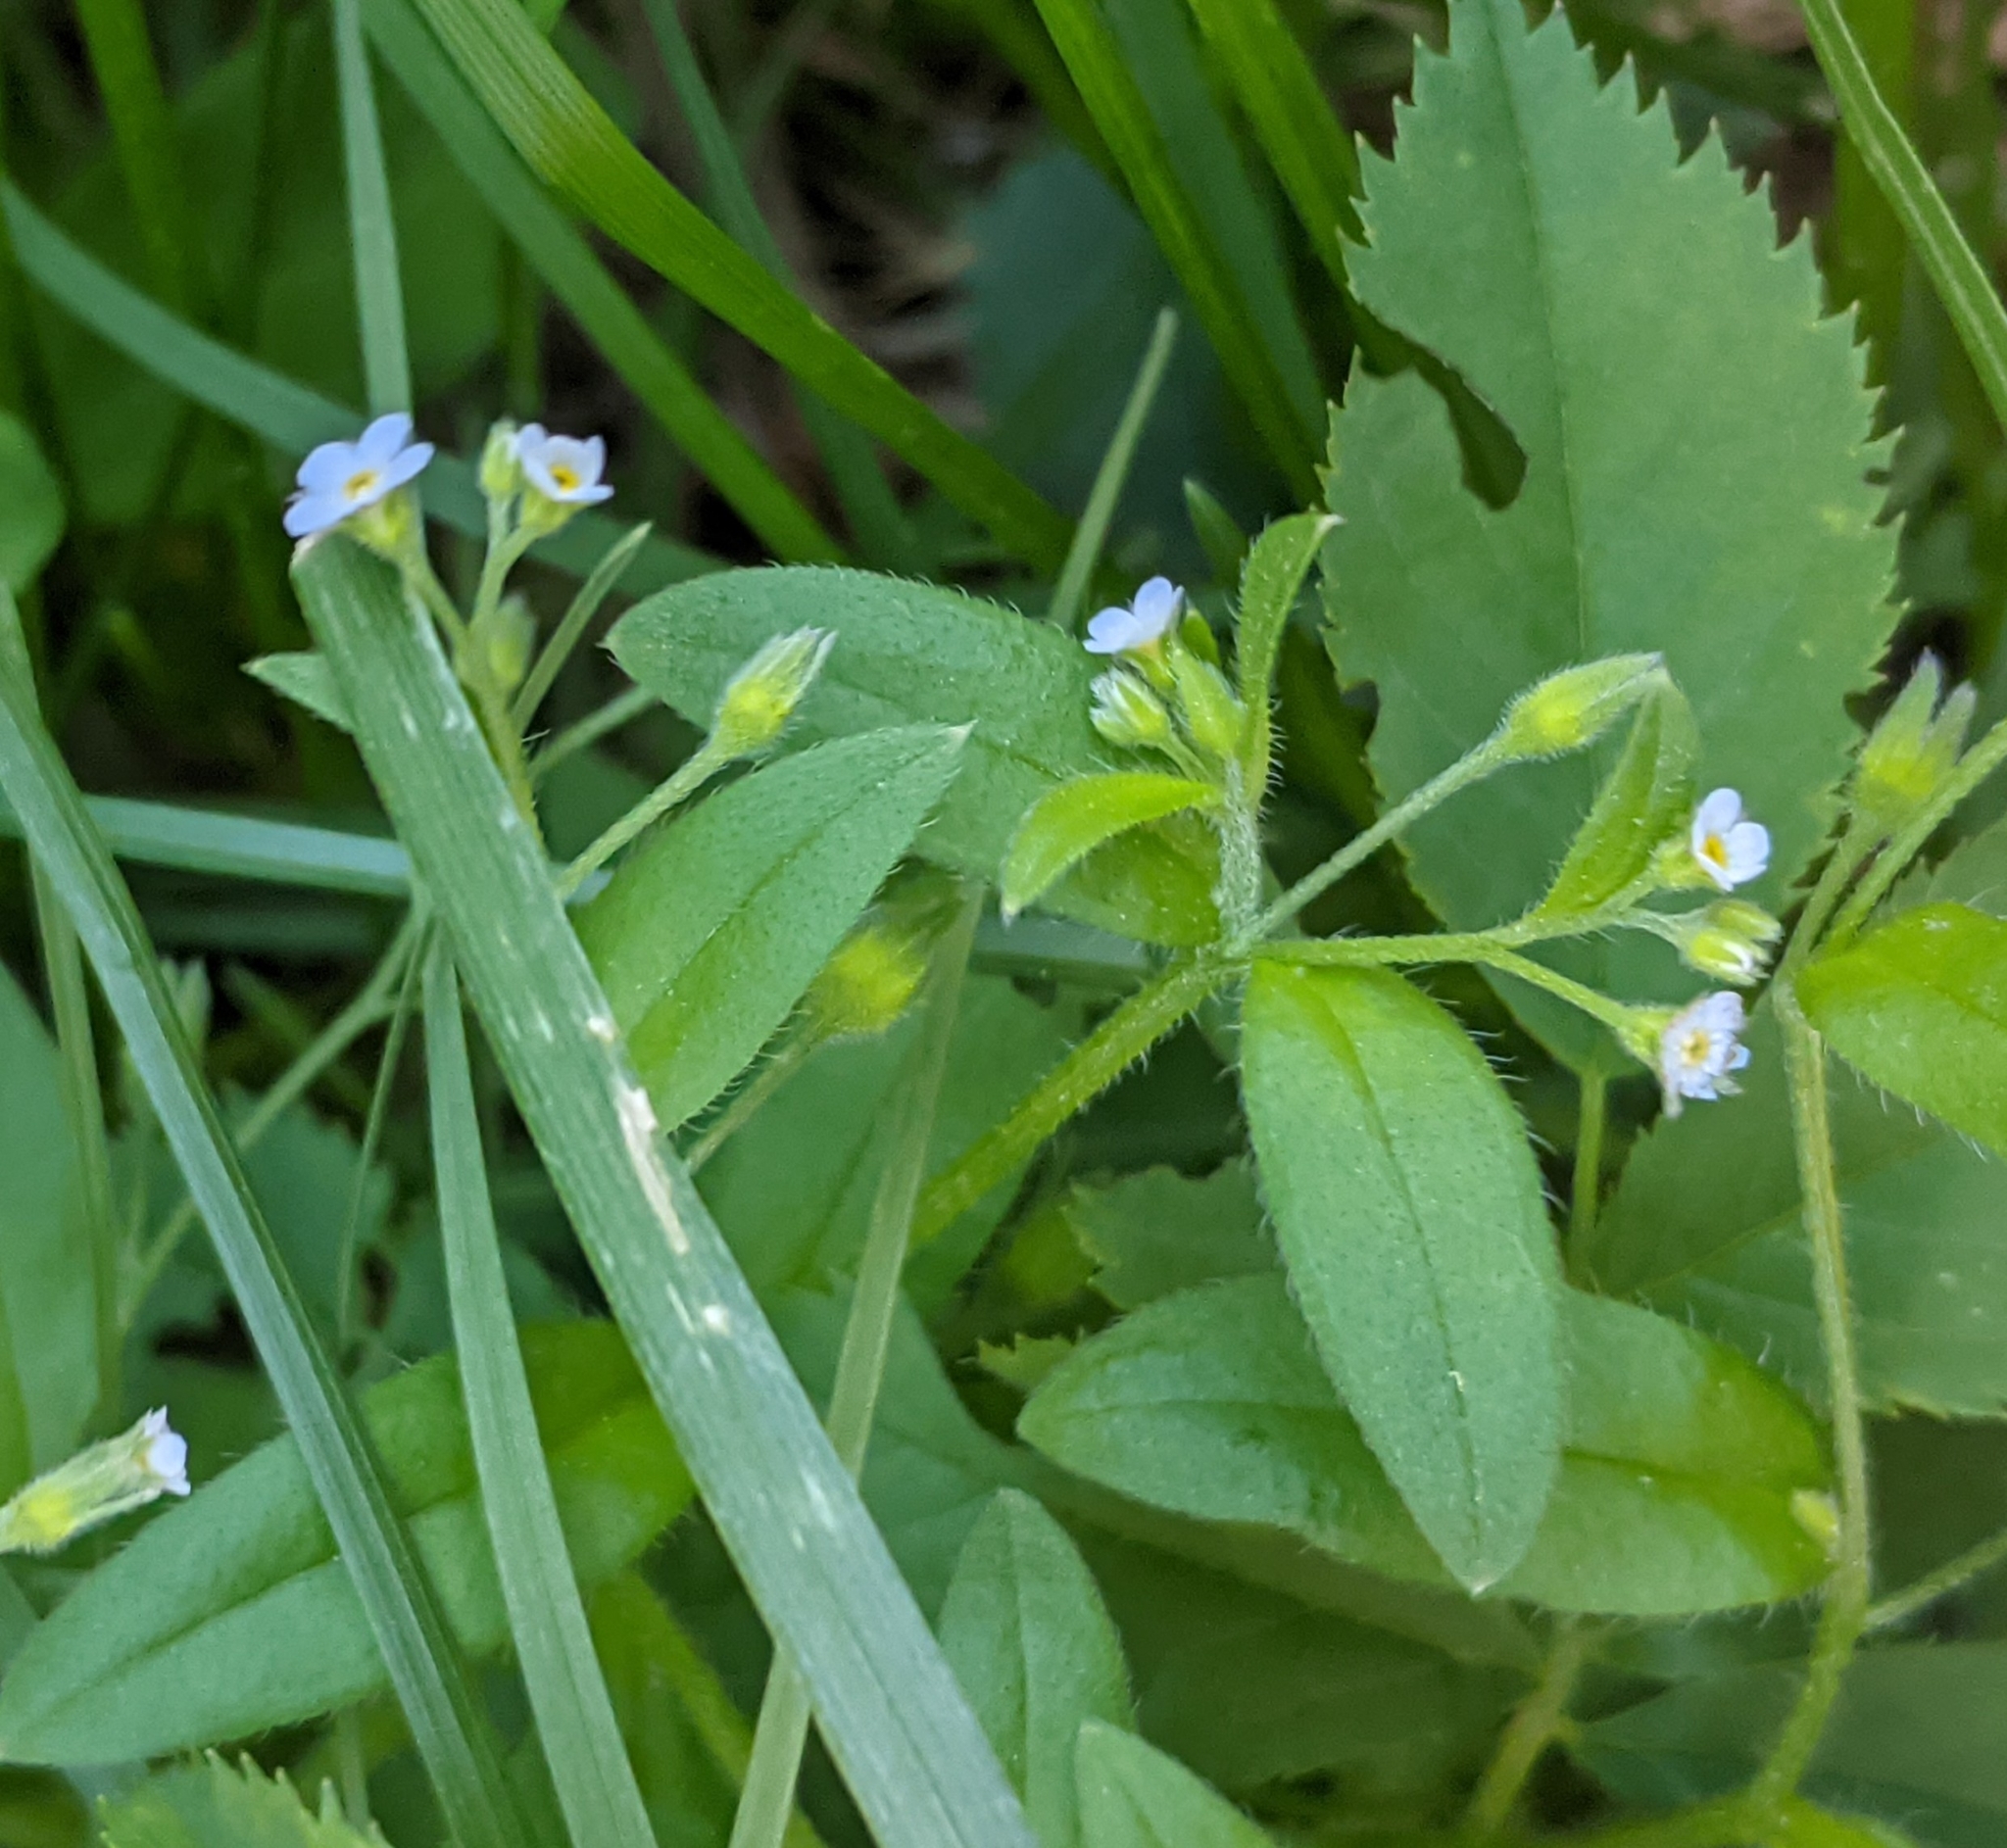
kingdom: Plantae
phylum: Tracheophyta
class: Magnoliopsida
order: Boraginales
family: Boraginaceae
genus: Myosotis
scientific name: Myosotis sparsiflora
